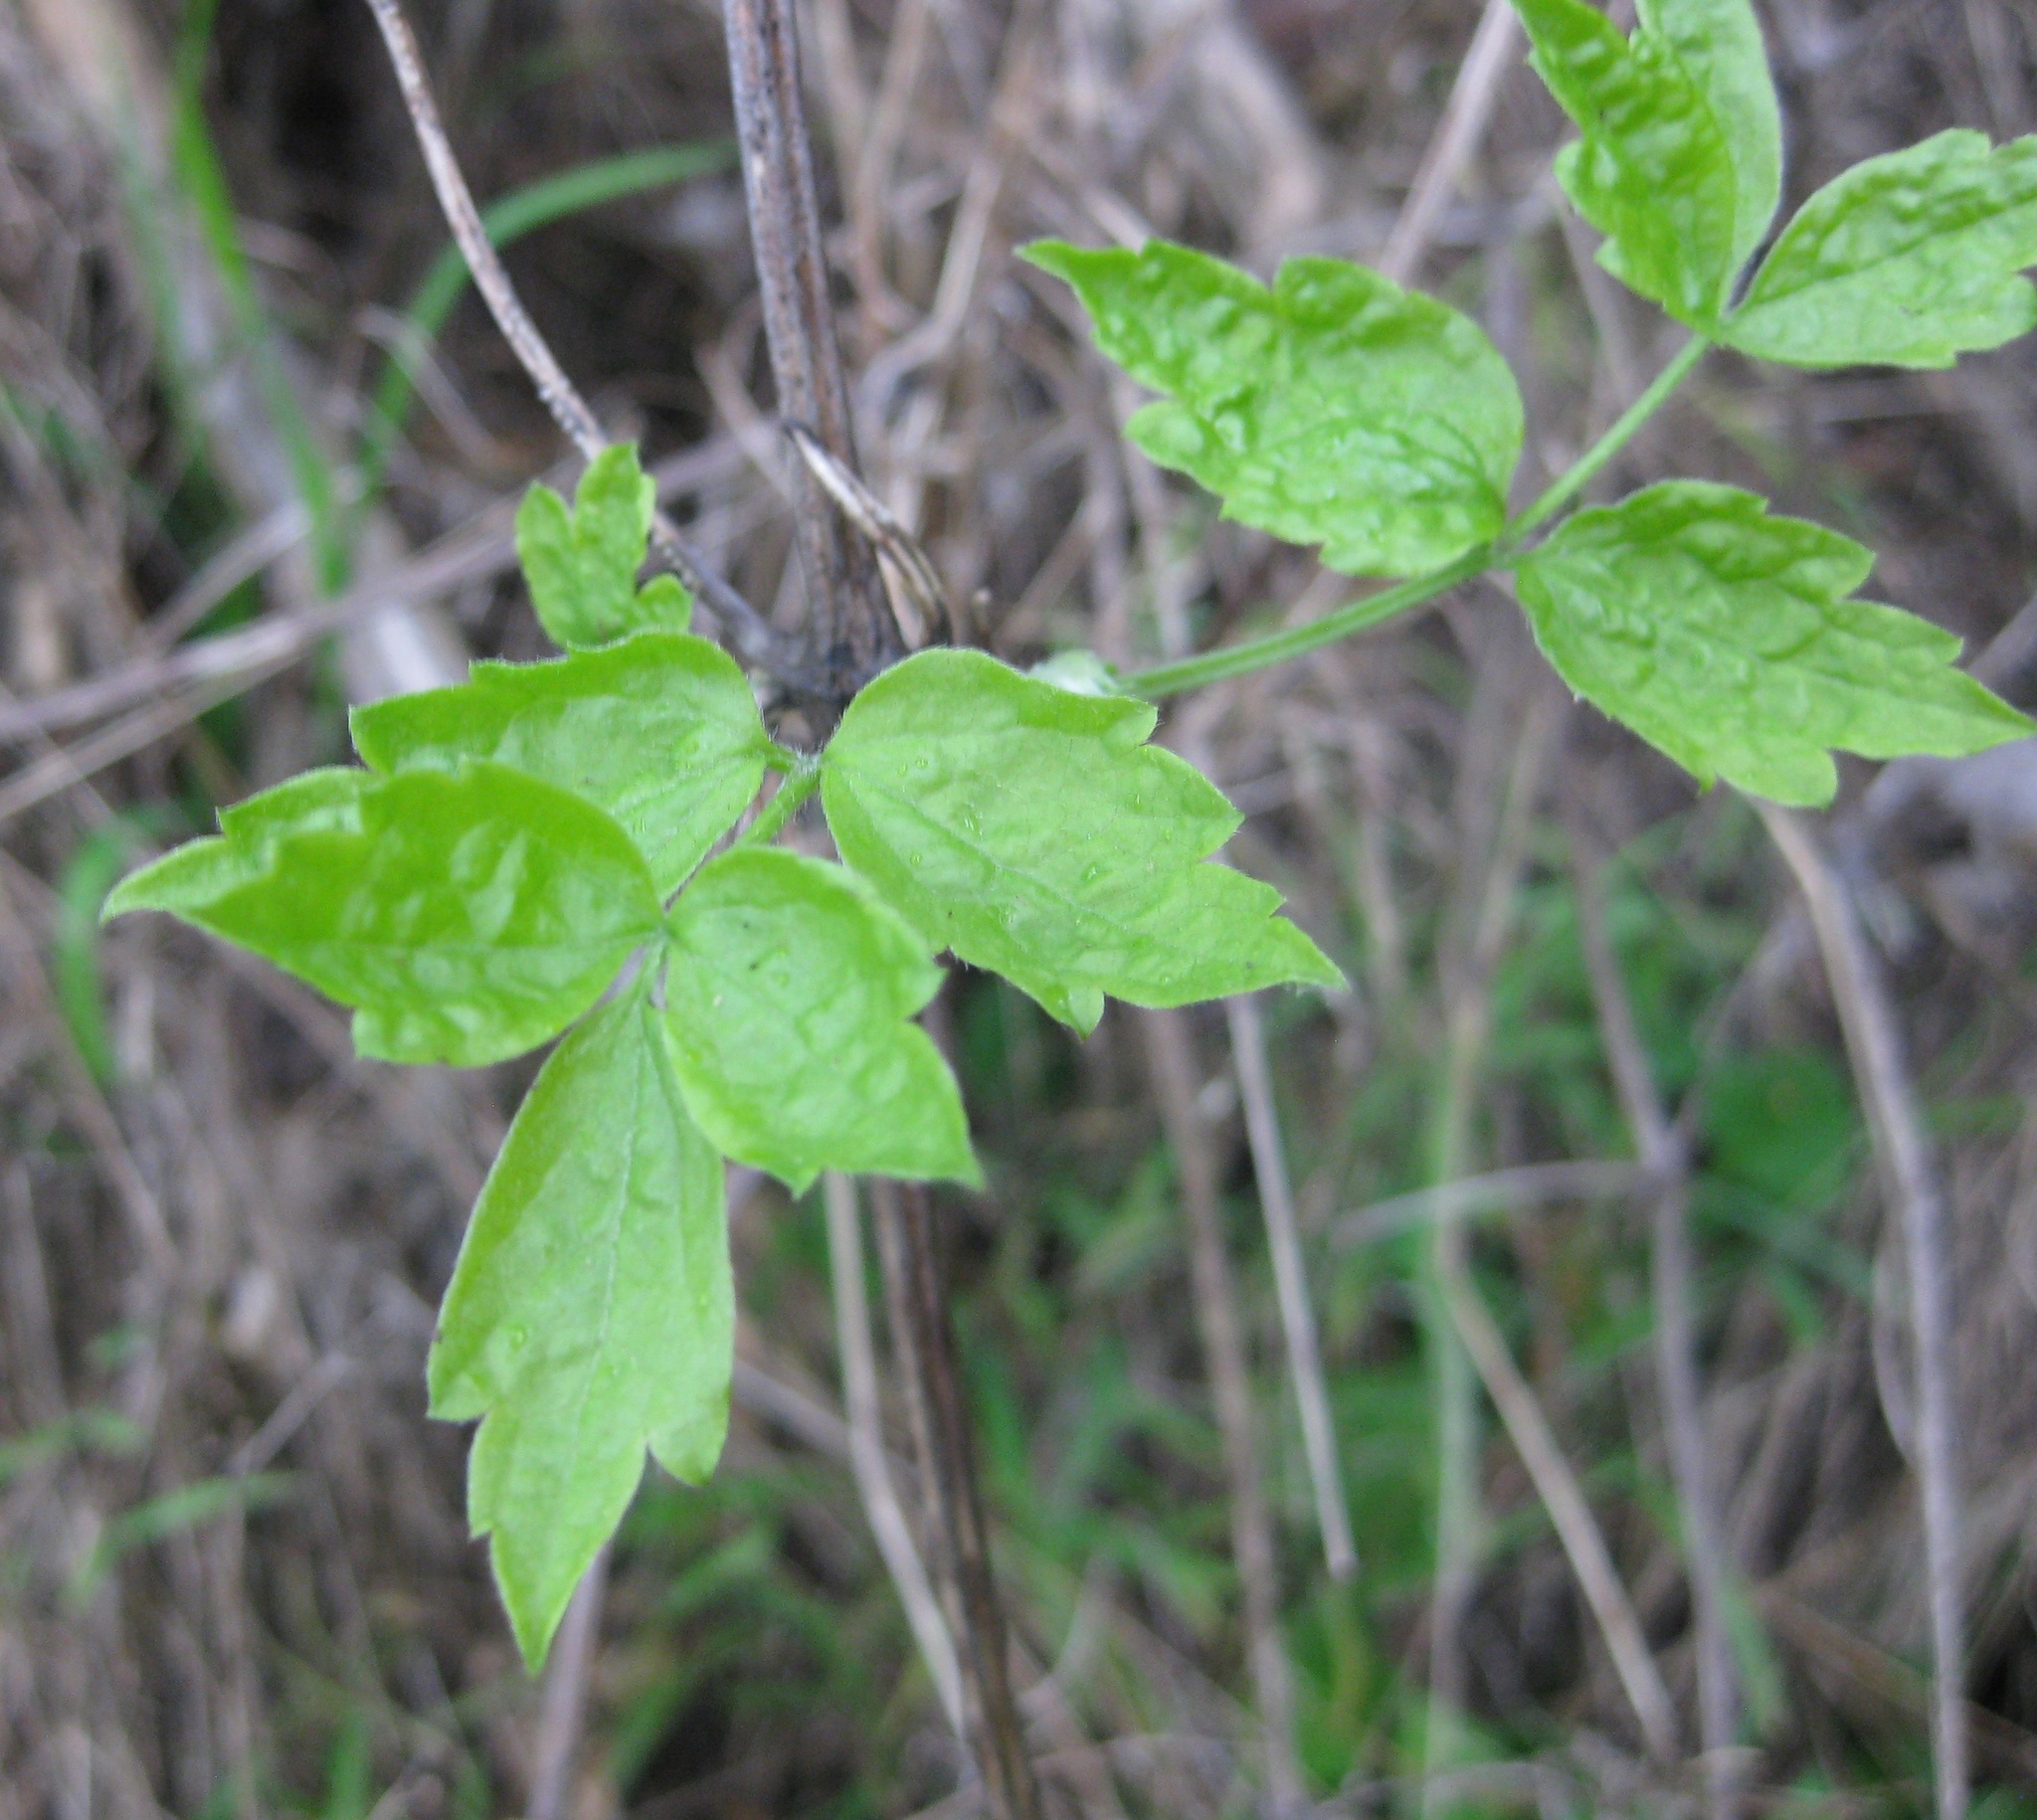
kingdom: Plantae
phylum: Tracheophyta
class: Magnoliopsida
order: Ranunculales
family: Ranunculaceae
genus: Clematis
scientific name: Clematis vitalba
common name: Evergreen clematis
